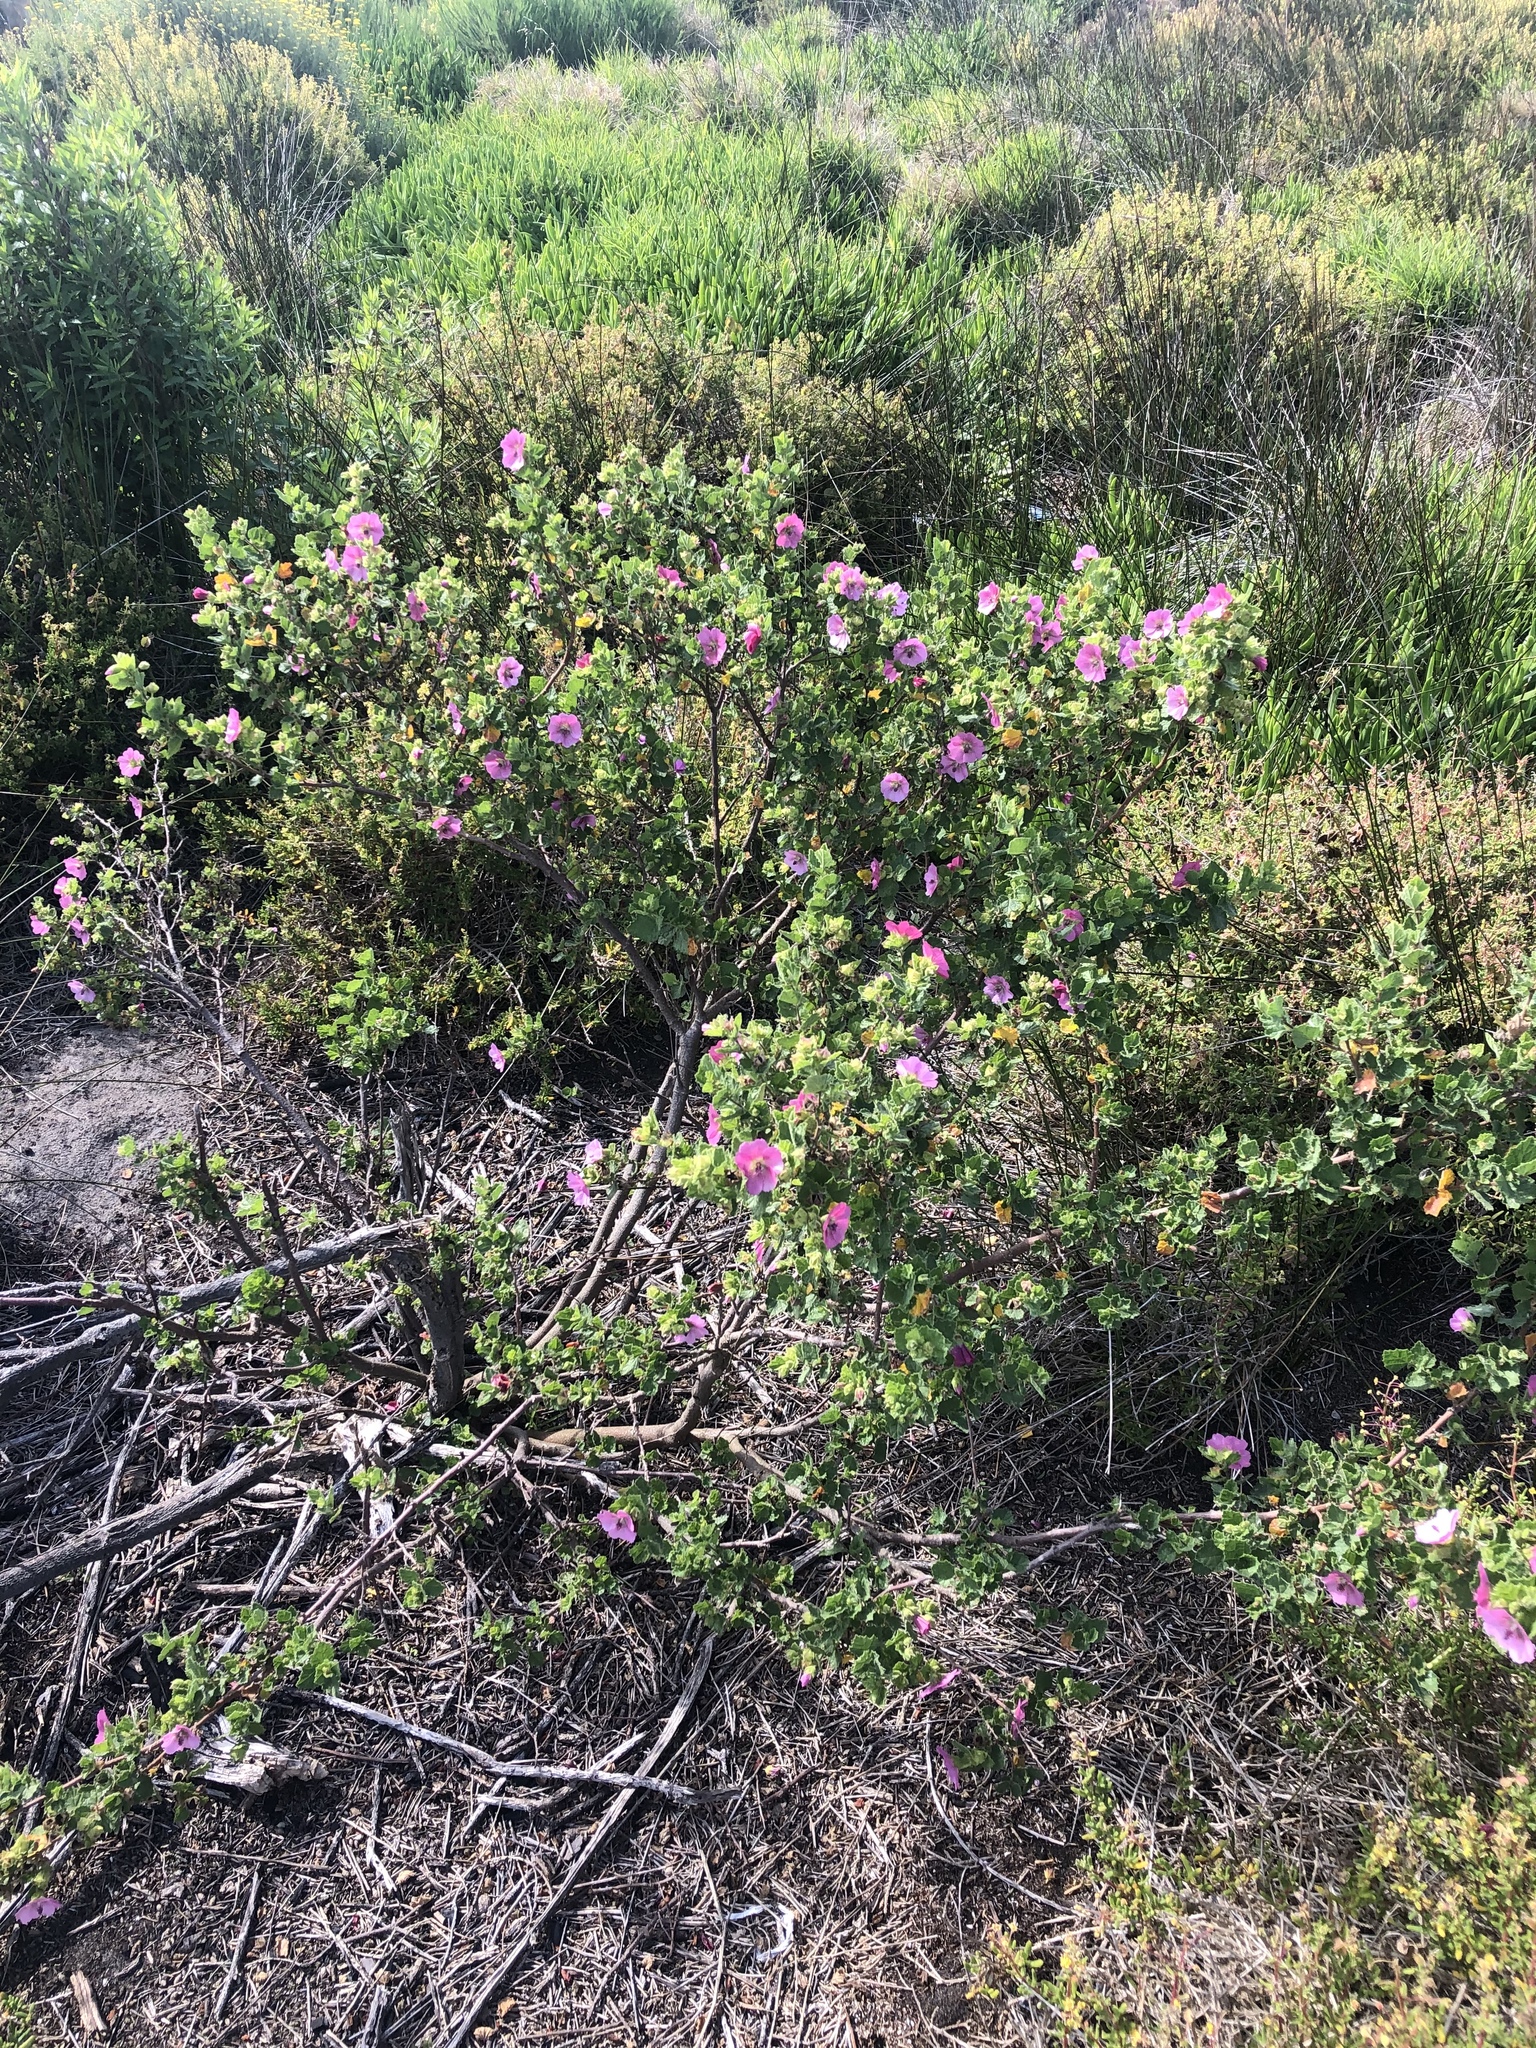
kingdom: Plantae
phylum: Tracheophyta
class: Magnoliopsida
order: Malvales
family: Malvaceae
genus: Anisodontea
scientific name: Anisodontea scabrosa
